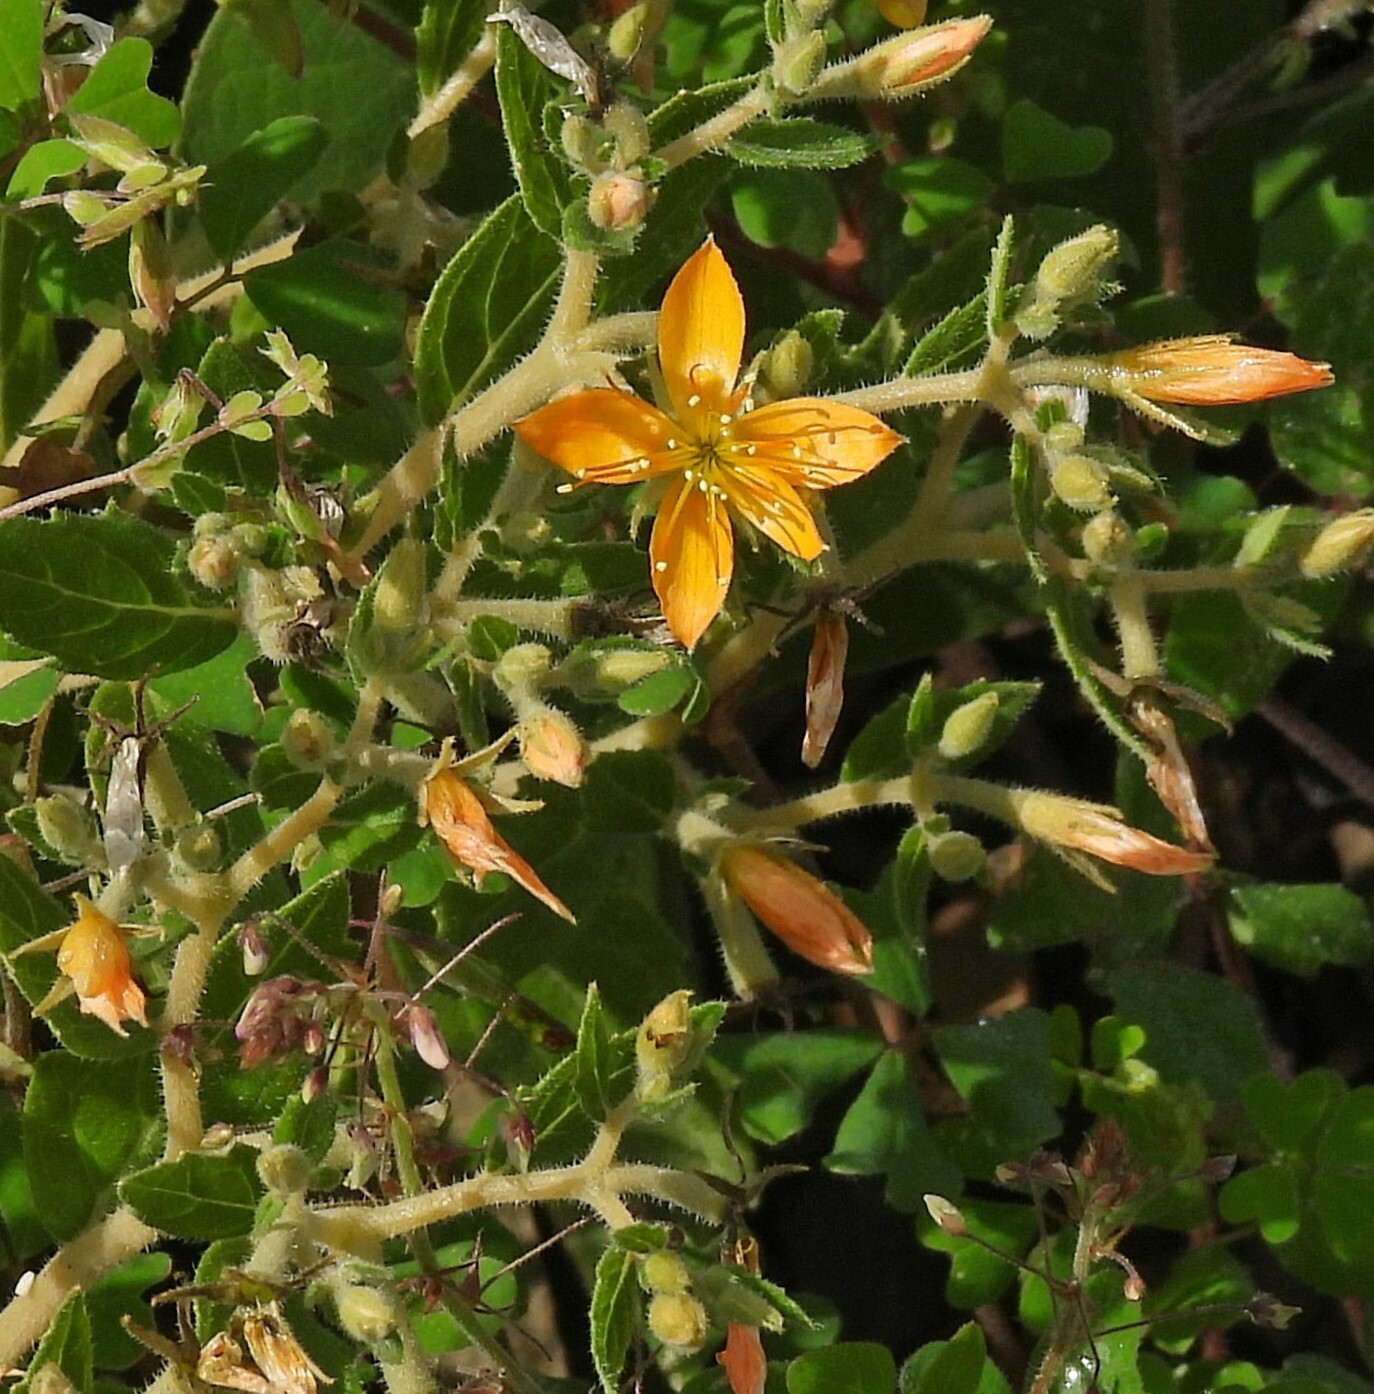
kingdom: Plantae
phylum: Tracheophyta
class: Magnoliopsida
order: Cornales
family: Loasaceae
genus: Mentzelia
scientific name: Mentzelia parvifolia
